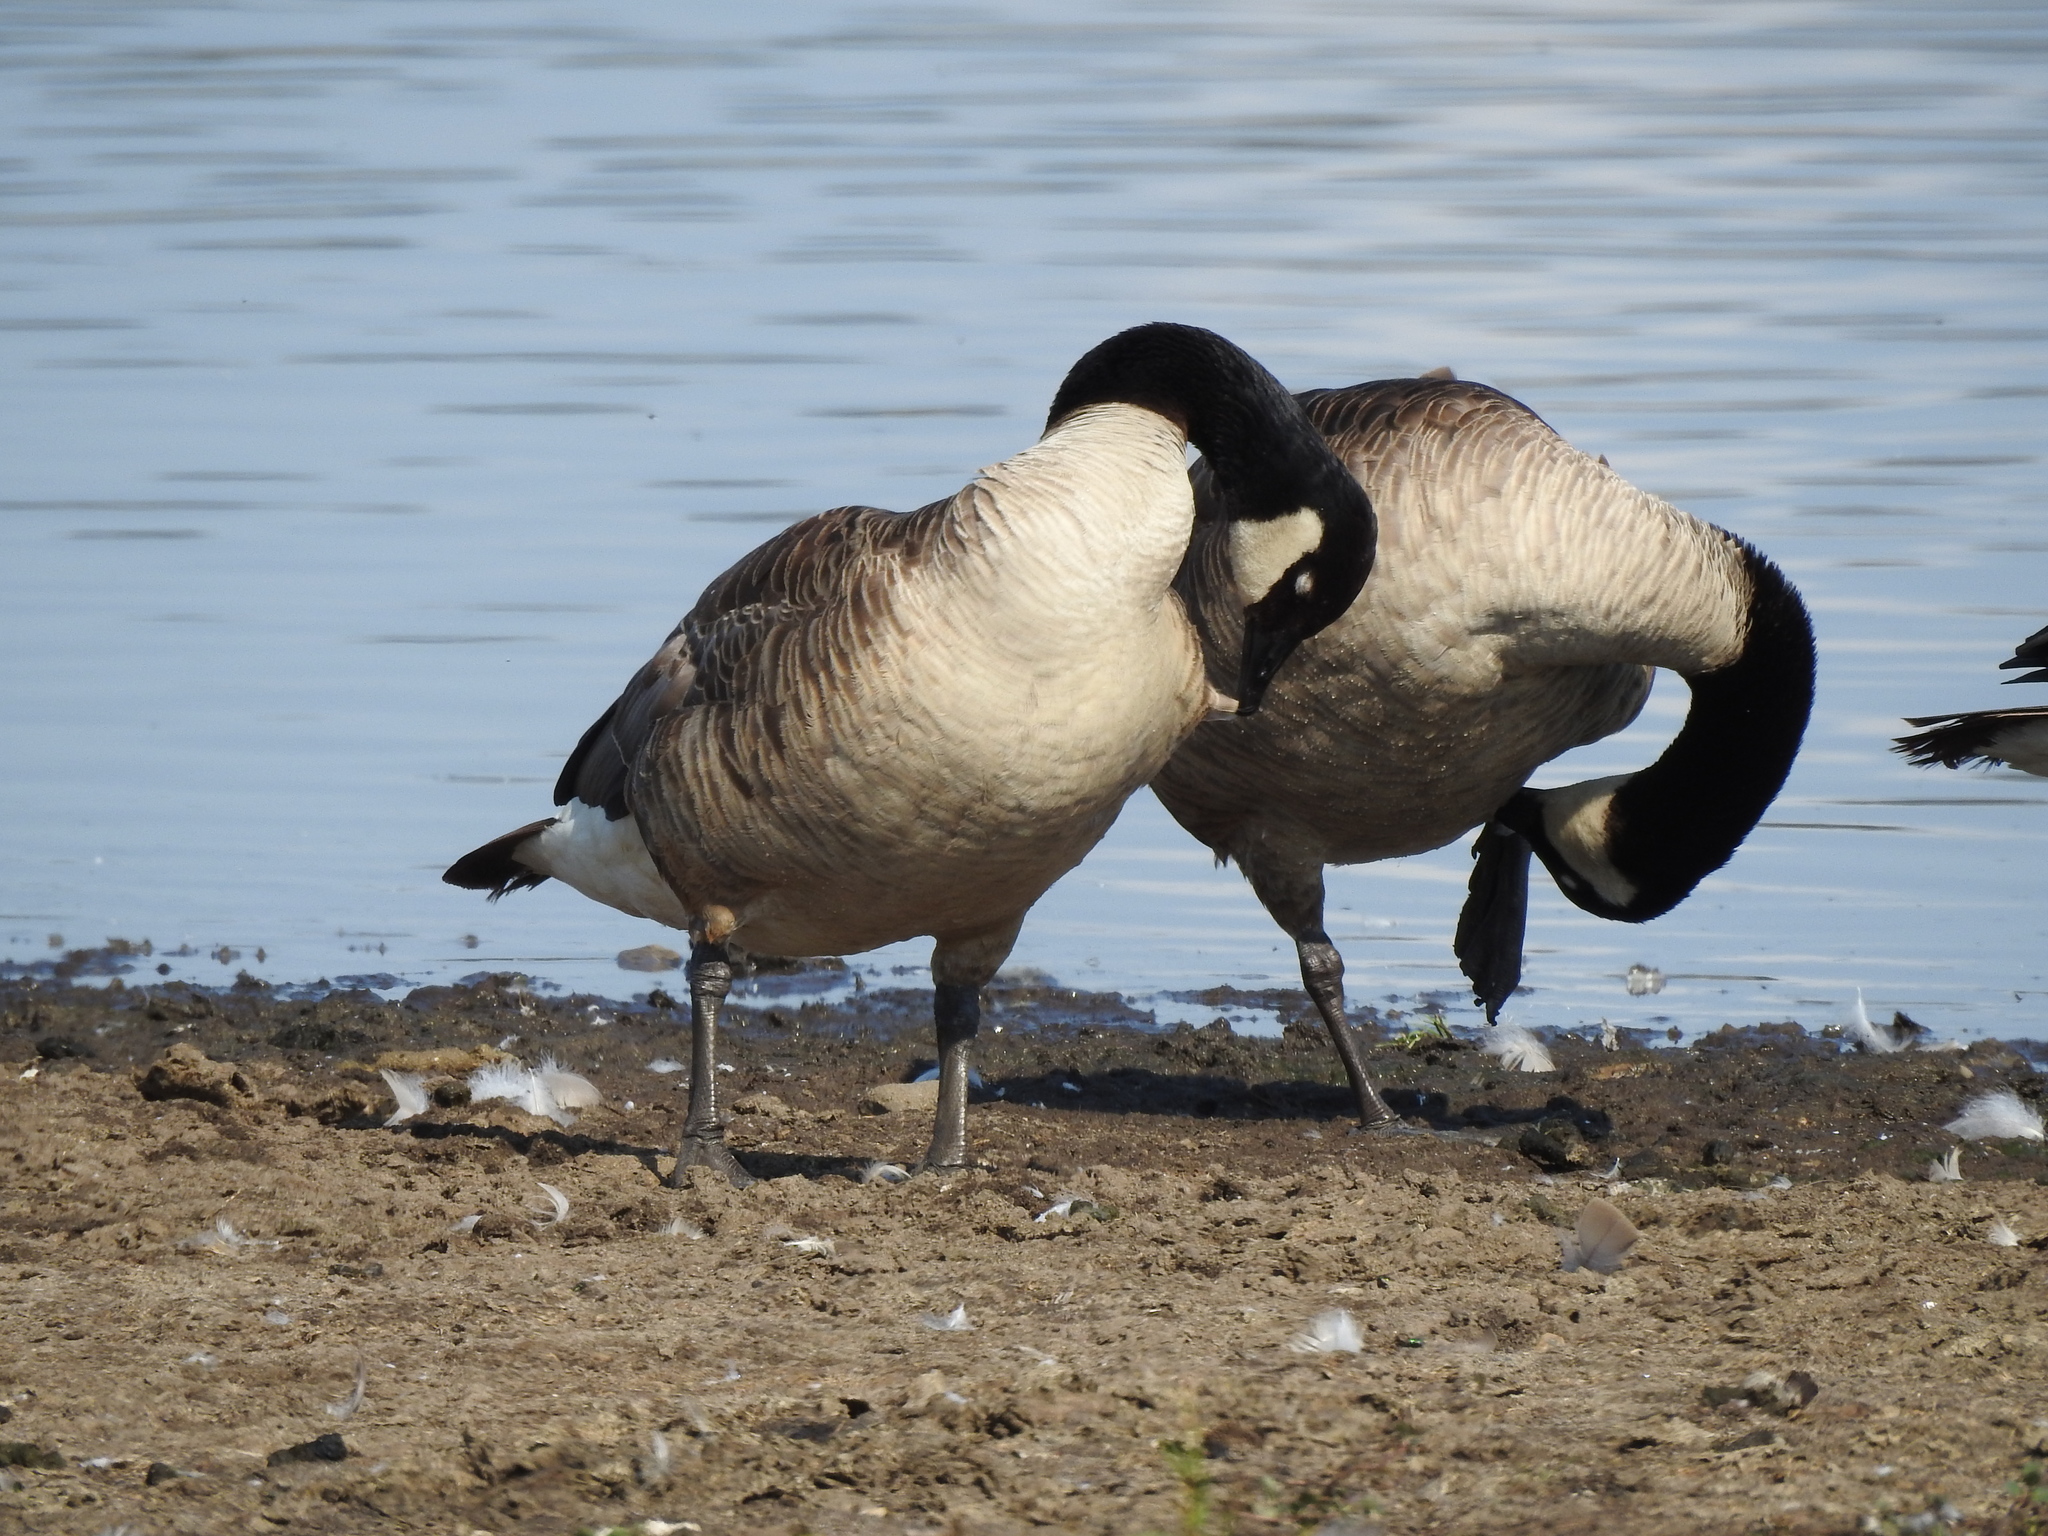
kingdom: Animalia
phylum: Chordata
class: Aves
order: Anseriformes
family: Anatidae
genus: Branta
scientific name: Branta canadensis
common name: Canada goose
